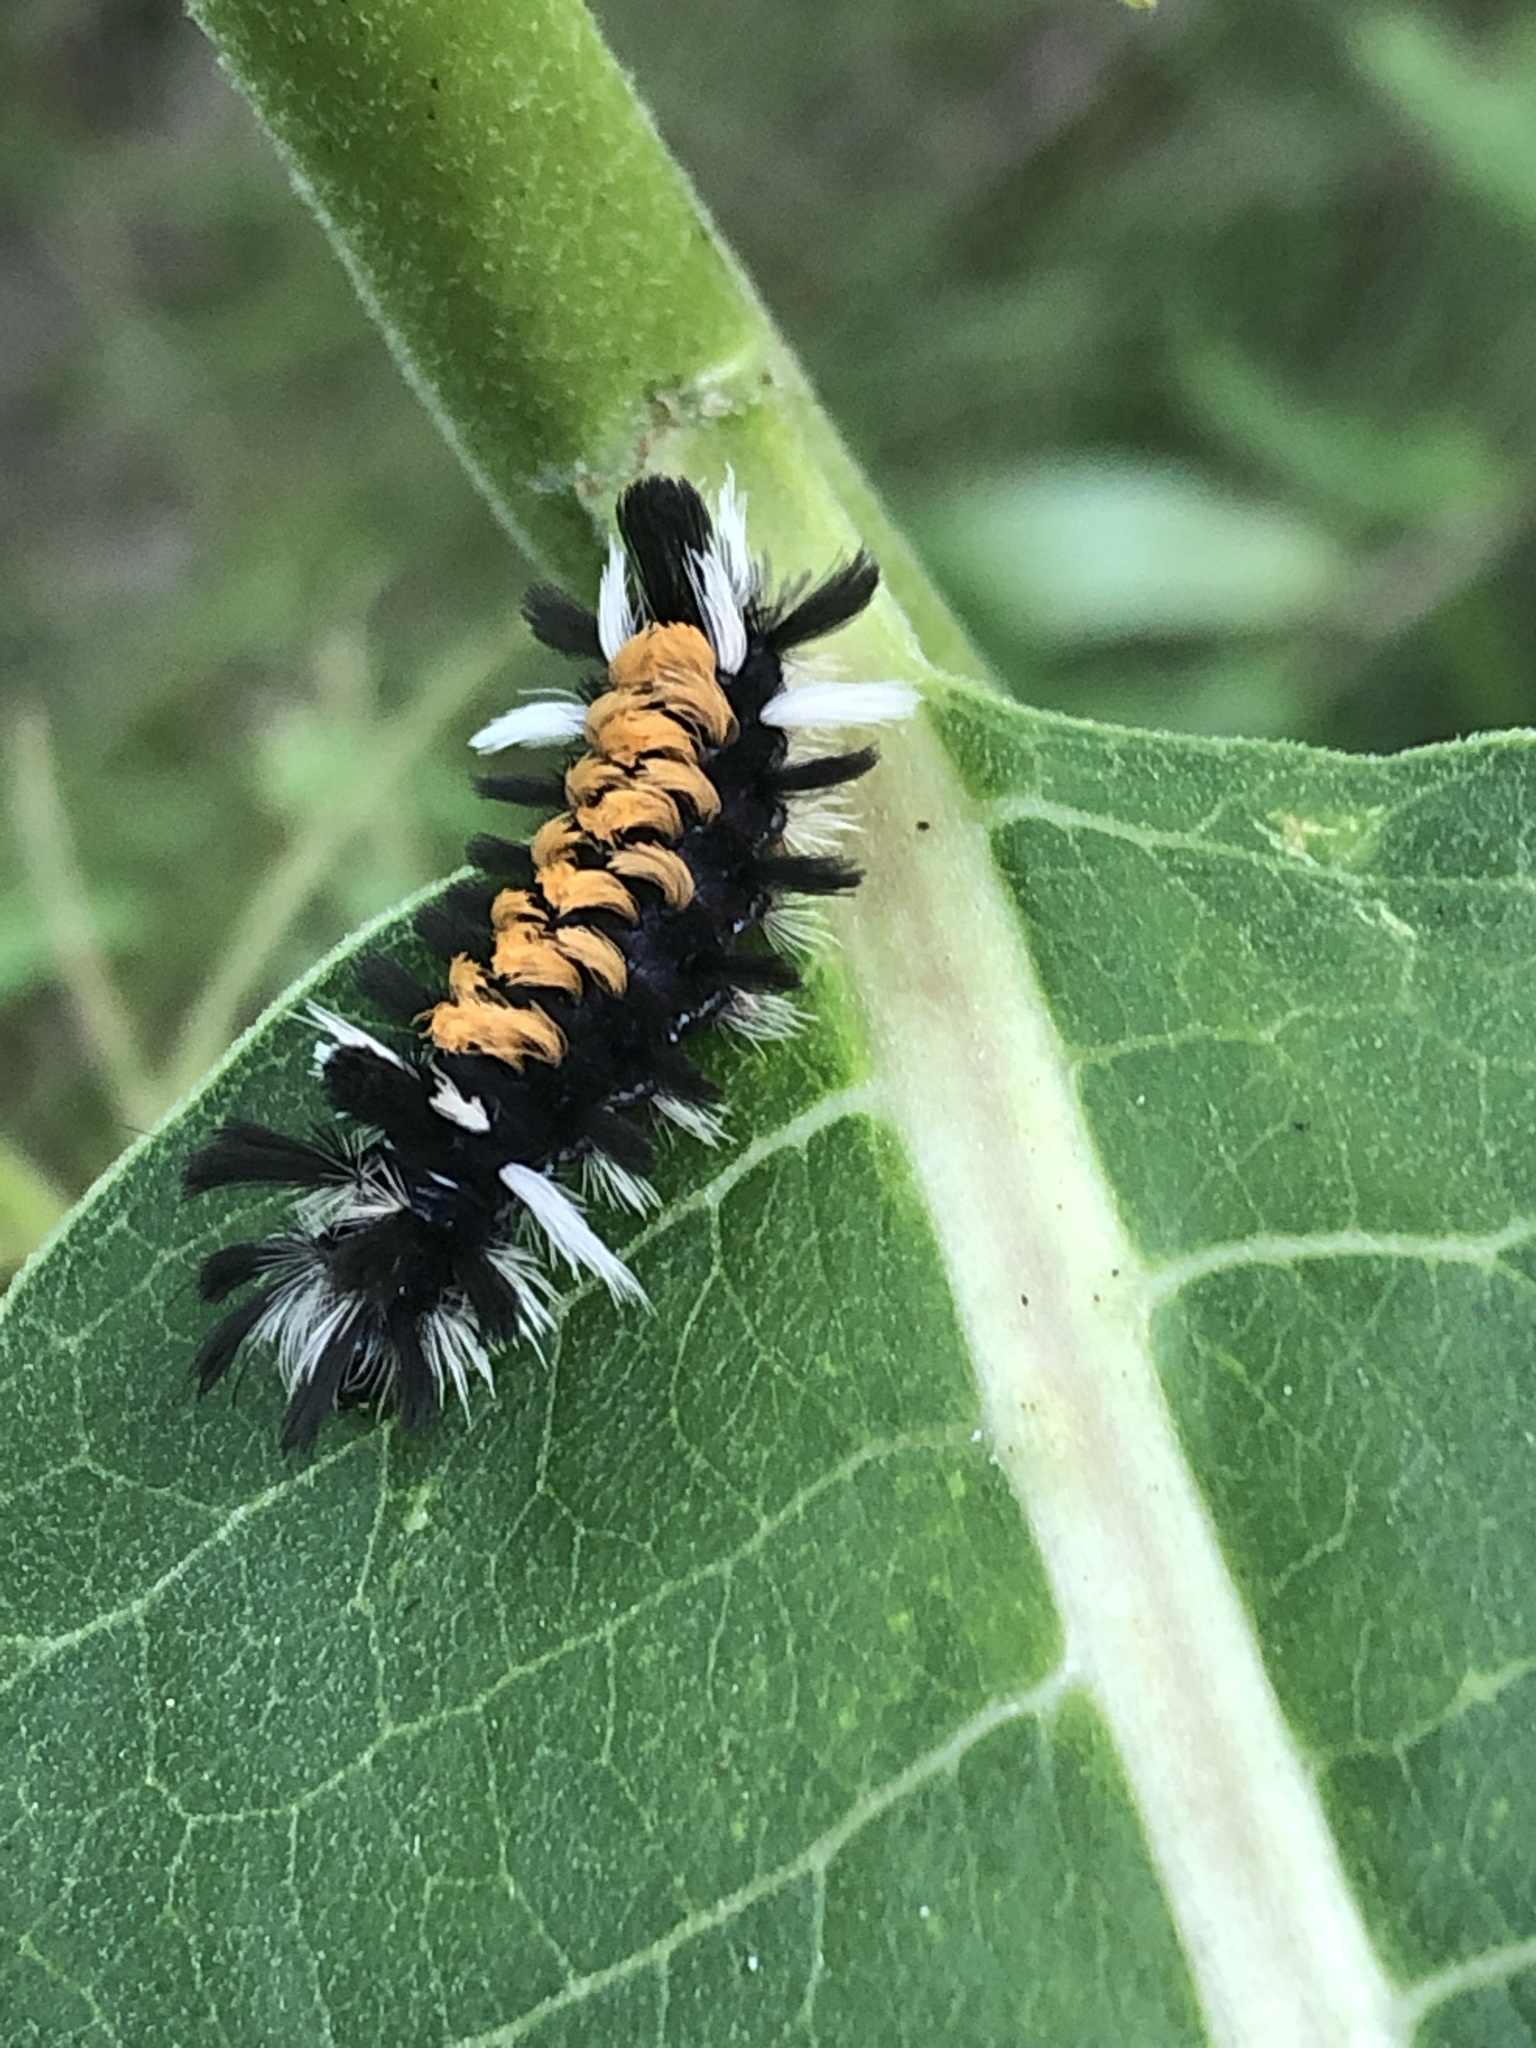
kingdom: Animalia
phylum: Arthropoda
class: Insecta
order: Lepidoptera
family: Erebidae
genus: Euchaetes
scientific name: Euchaetes egle
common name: Milkweed tussock moth
